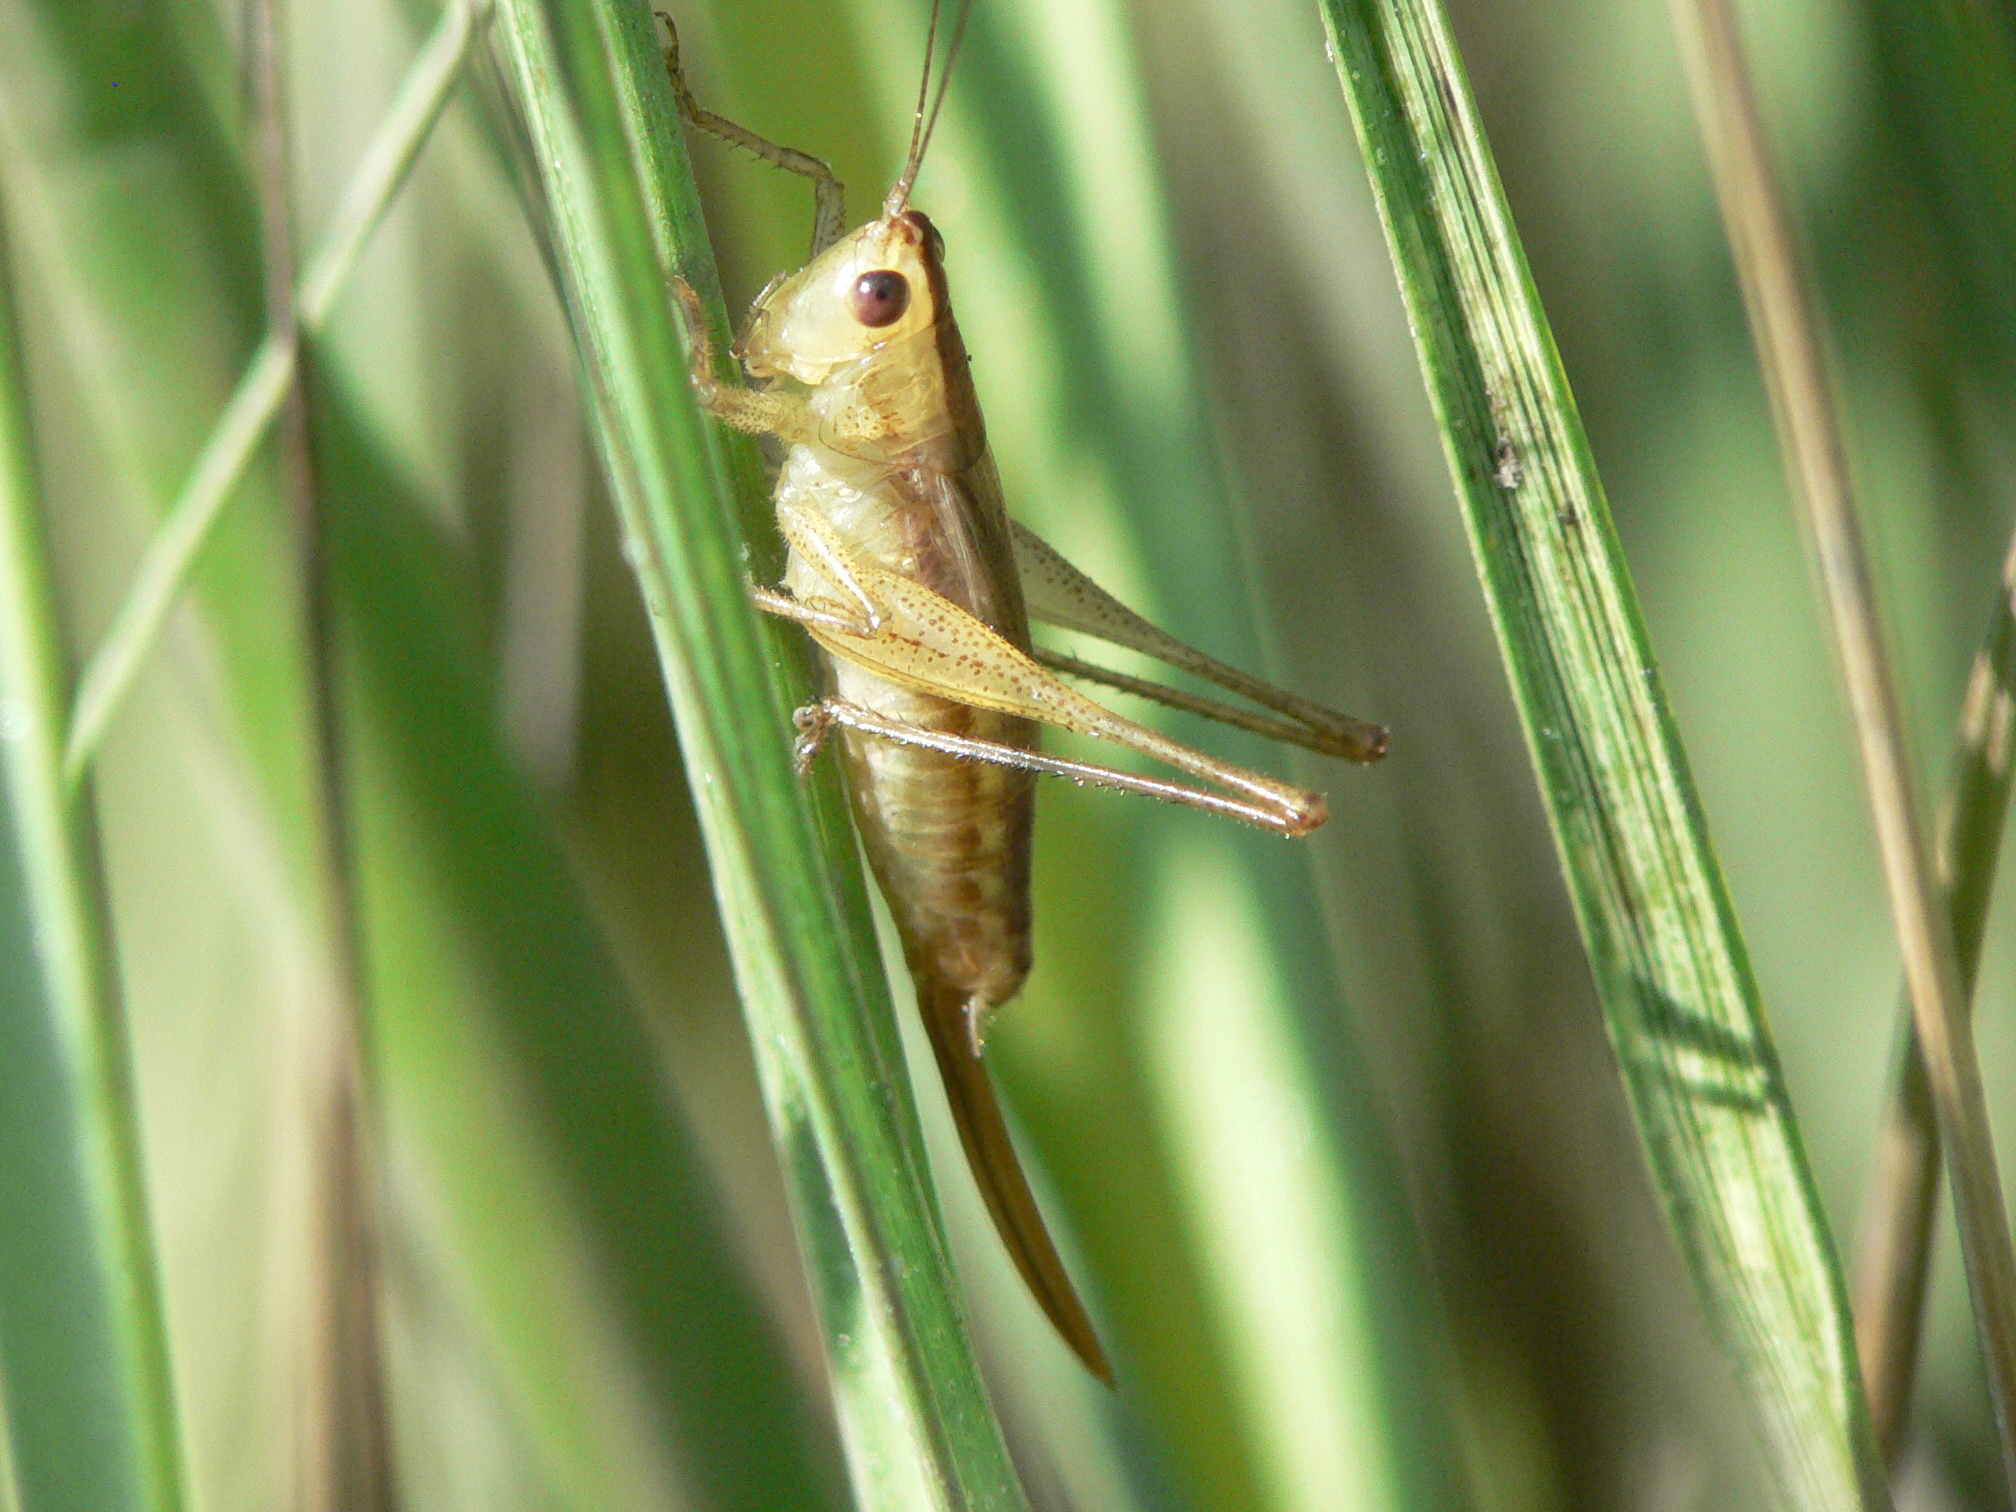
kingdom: Animalia
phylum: Arthropoda
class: Insecta
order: Orthoptera
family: Tettigoniidae
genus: Conocephalus
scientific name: Conocephalus spartinae
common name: Salt marsh meadow katydid
